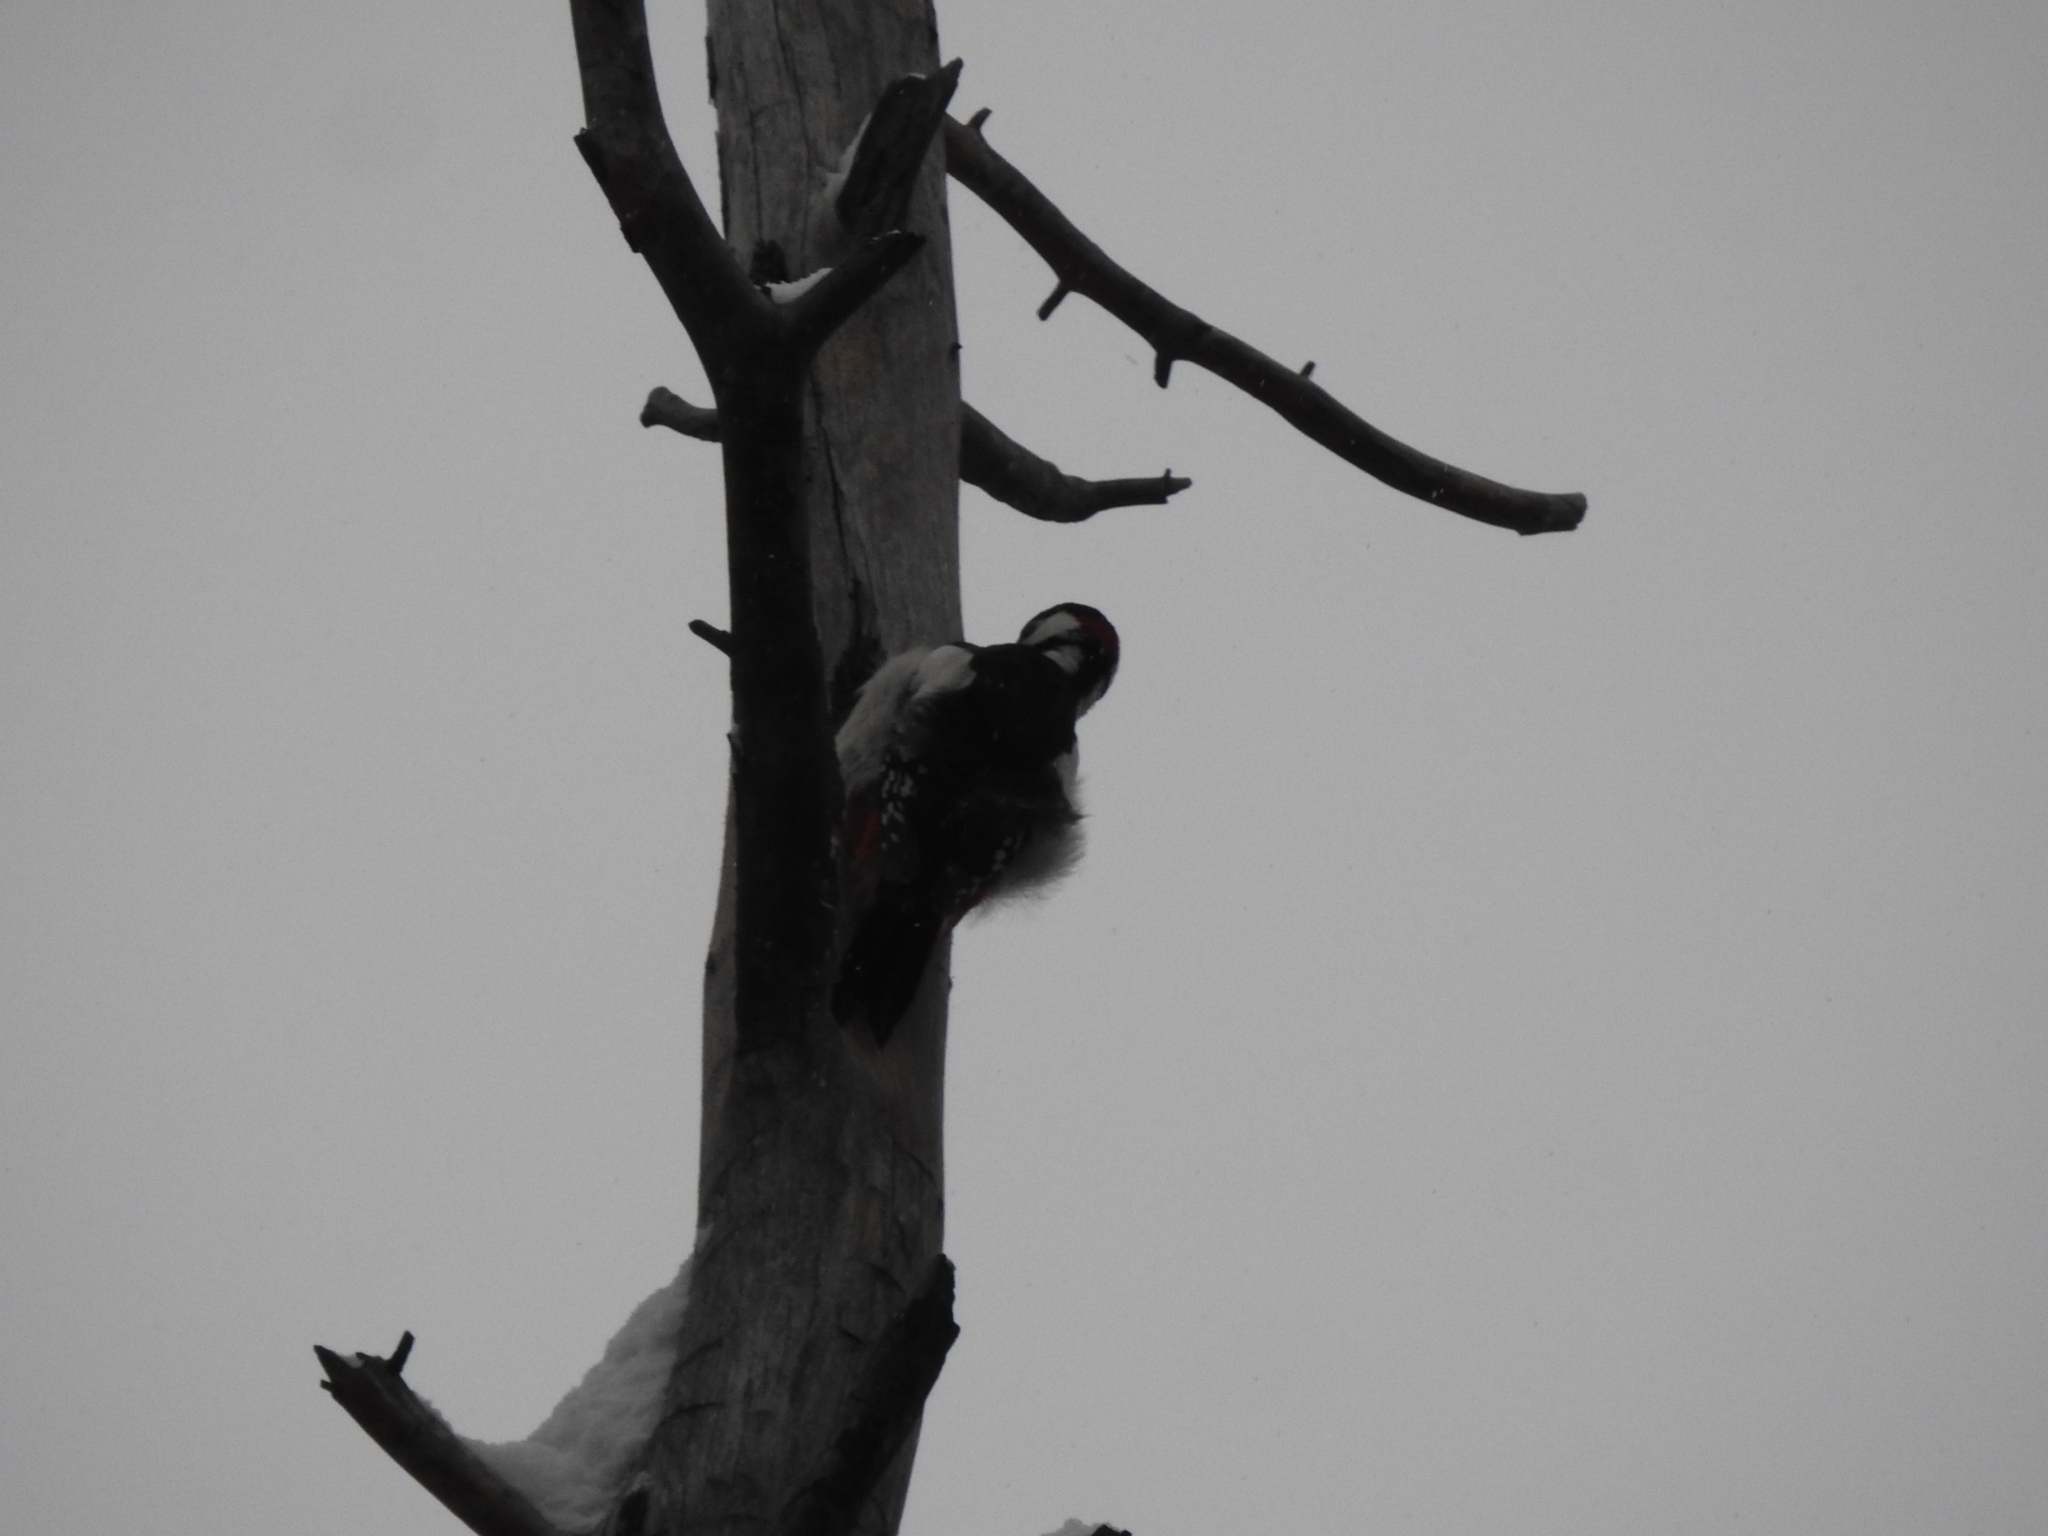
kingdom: Animalia
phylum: Chordata
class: Aves
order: Piciformes
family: Picidae
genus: Dendrocopos
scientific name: Dendrocopos major
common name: Great spotted woodpecker
